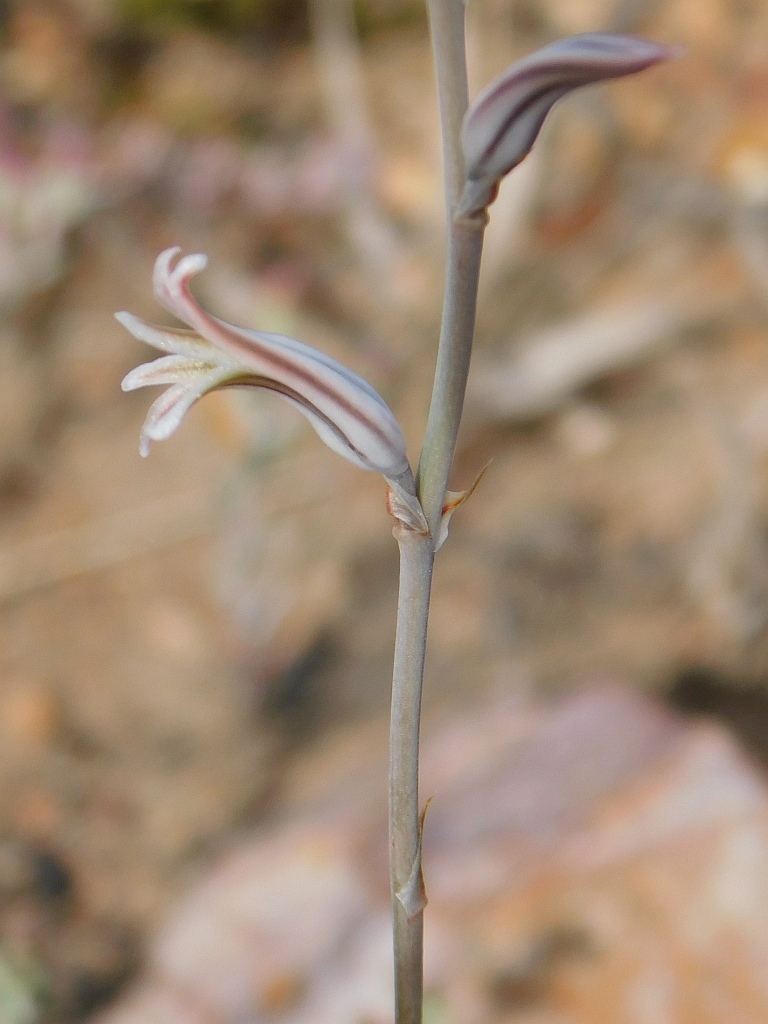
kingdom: Plantae
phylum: Tracheophyta
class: Liliopsida
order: Asparagales
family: Asphodelaceae
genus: Haworthia
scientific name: Haworthia mirabilis
